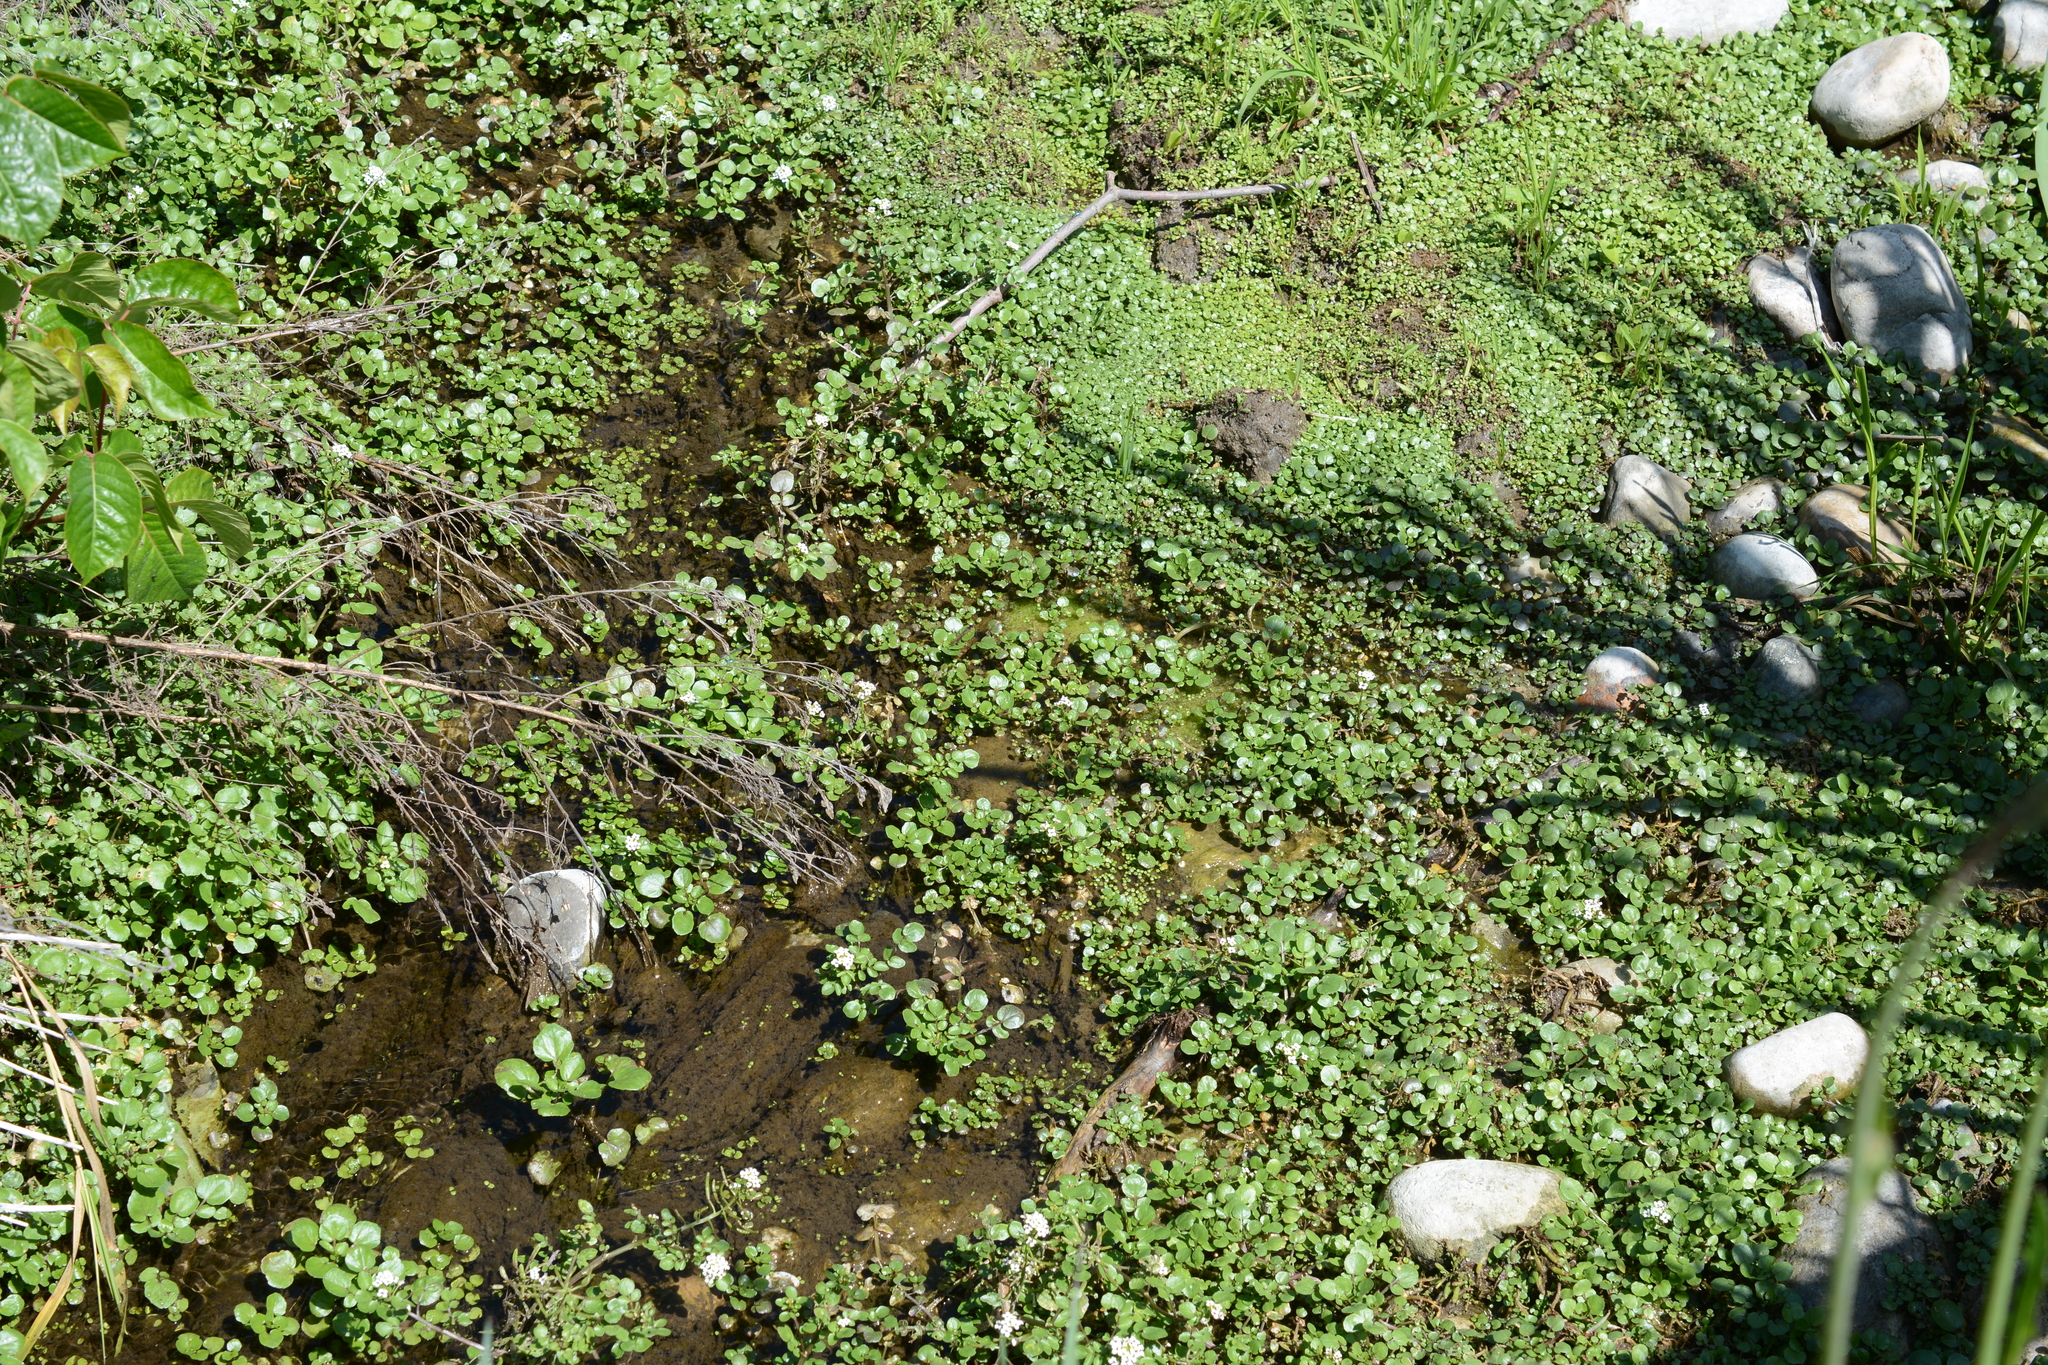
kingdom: Plantae
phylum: Tracheophyta
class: Magnoliopsida
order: Brassicales
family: Brassicaceae
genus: Nasturtium
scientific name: Nasturtium officinale
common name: Watercress
